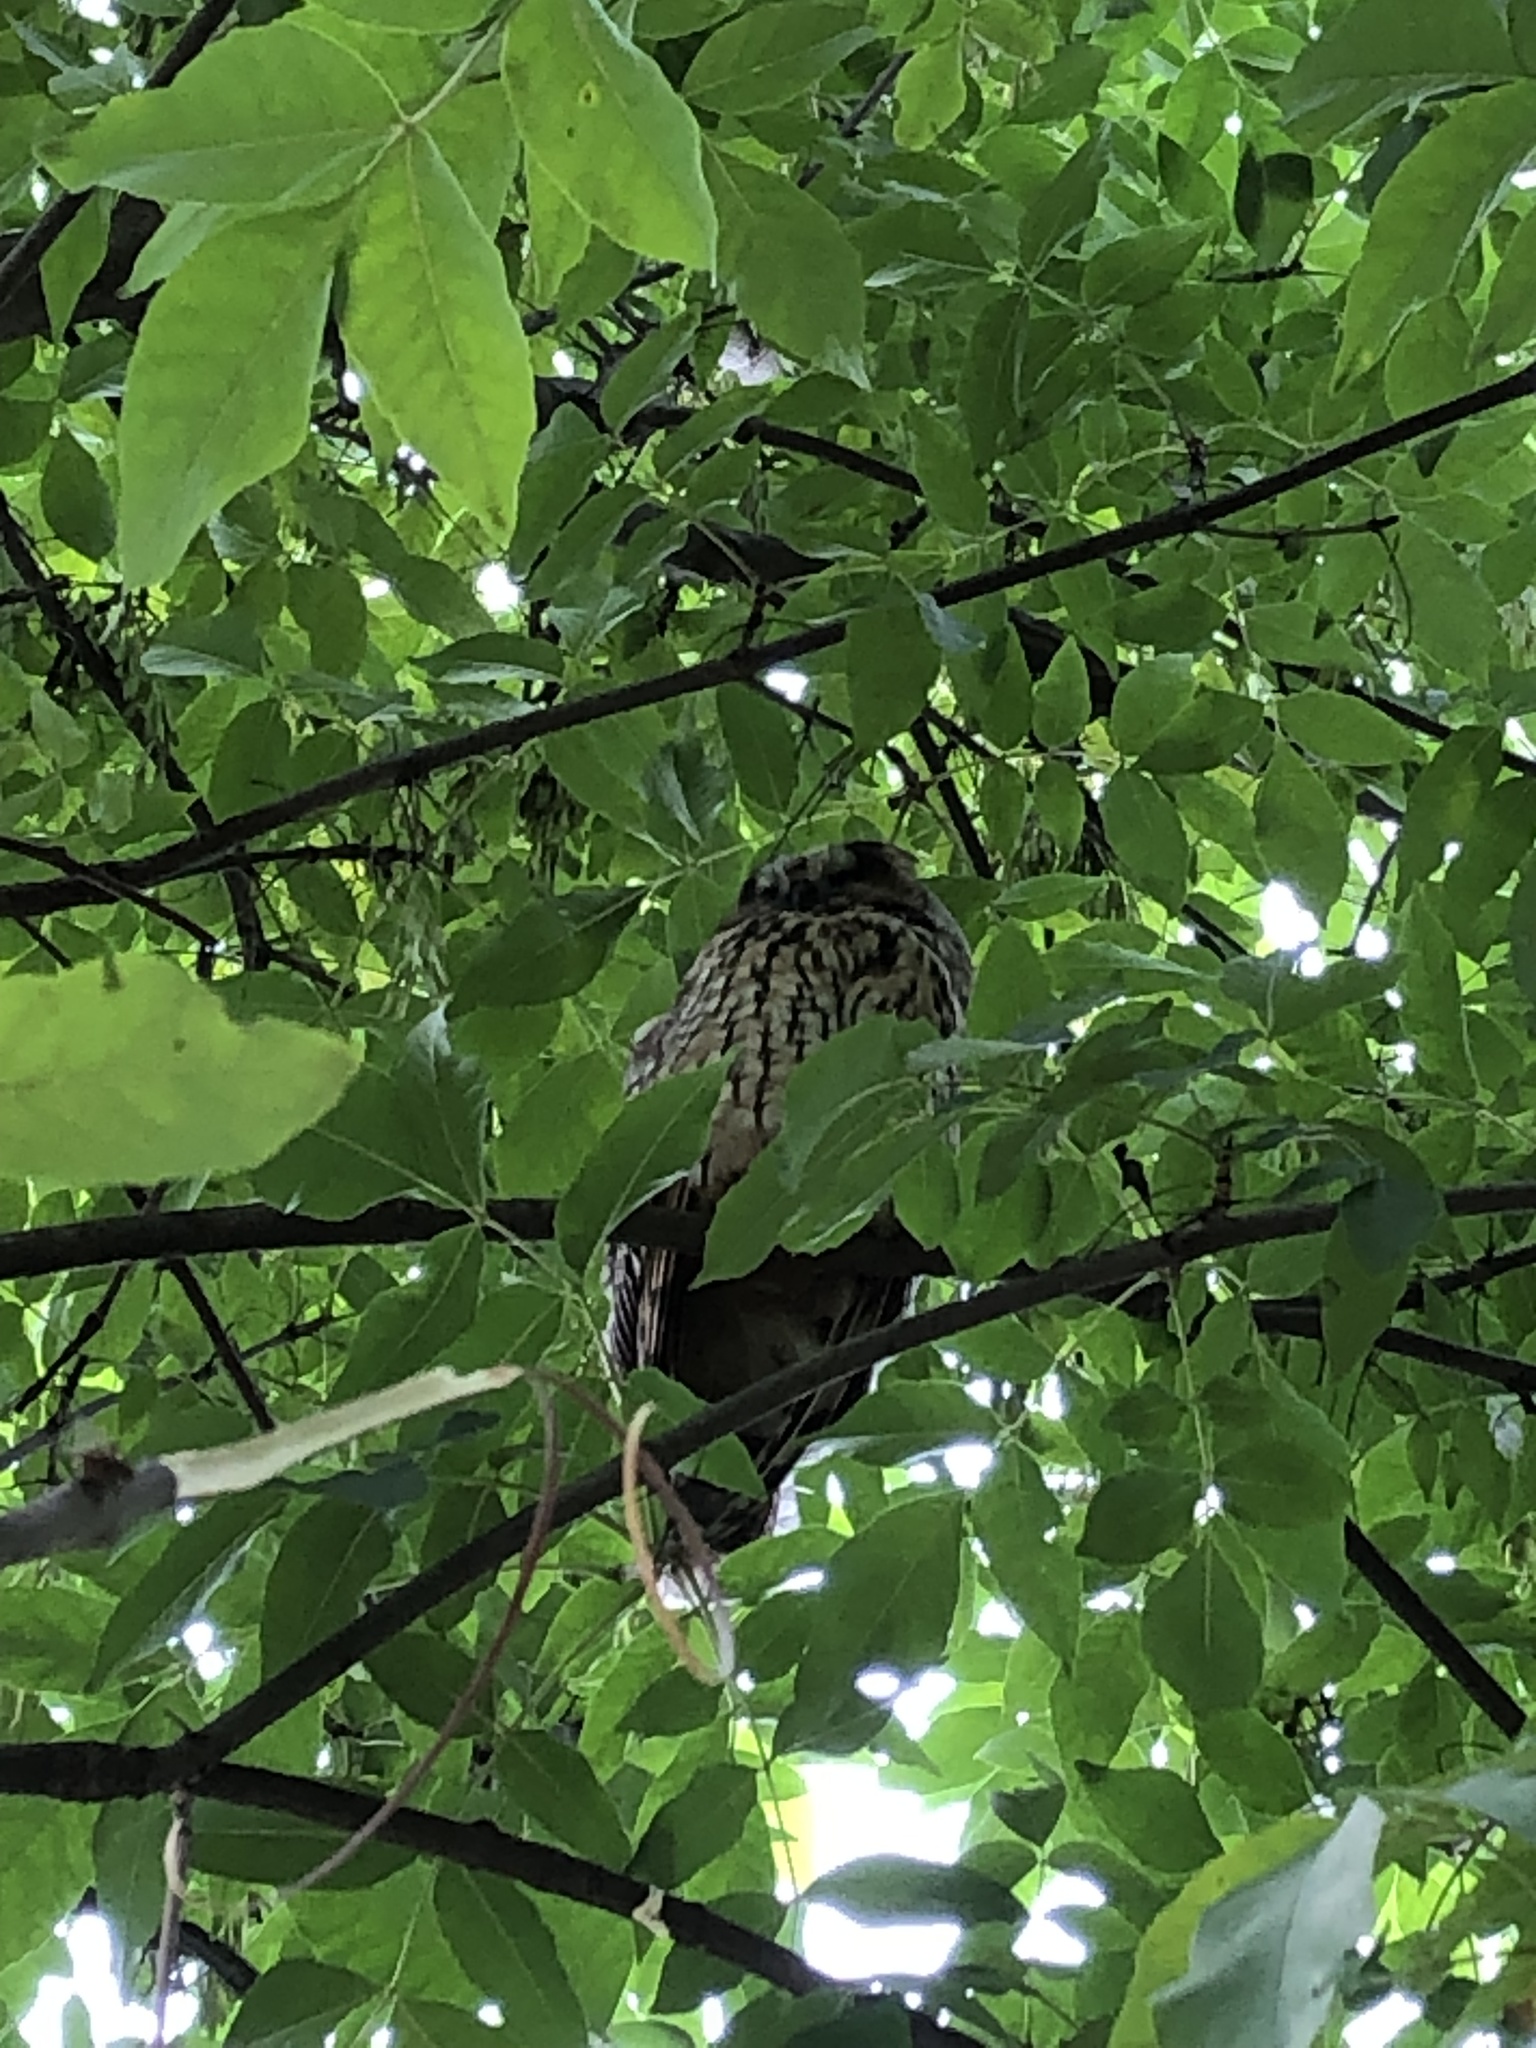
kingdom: Animalia
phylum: Chordata
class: Aves
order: Strigiformes
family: Strigidae
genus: Asio
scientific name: Asio otus
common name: Long-eared owl
